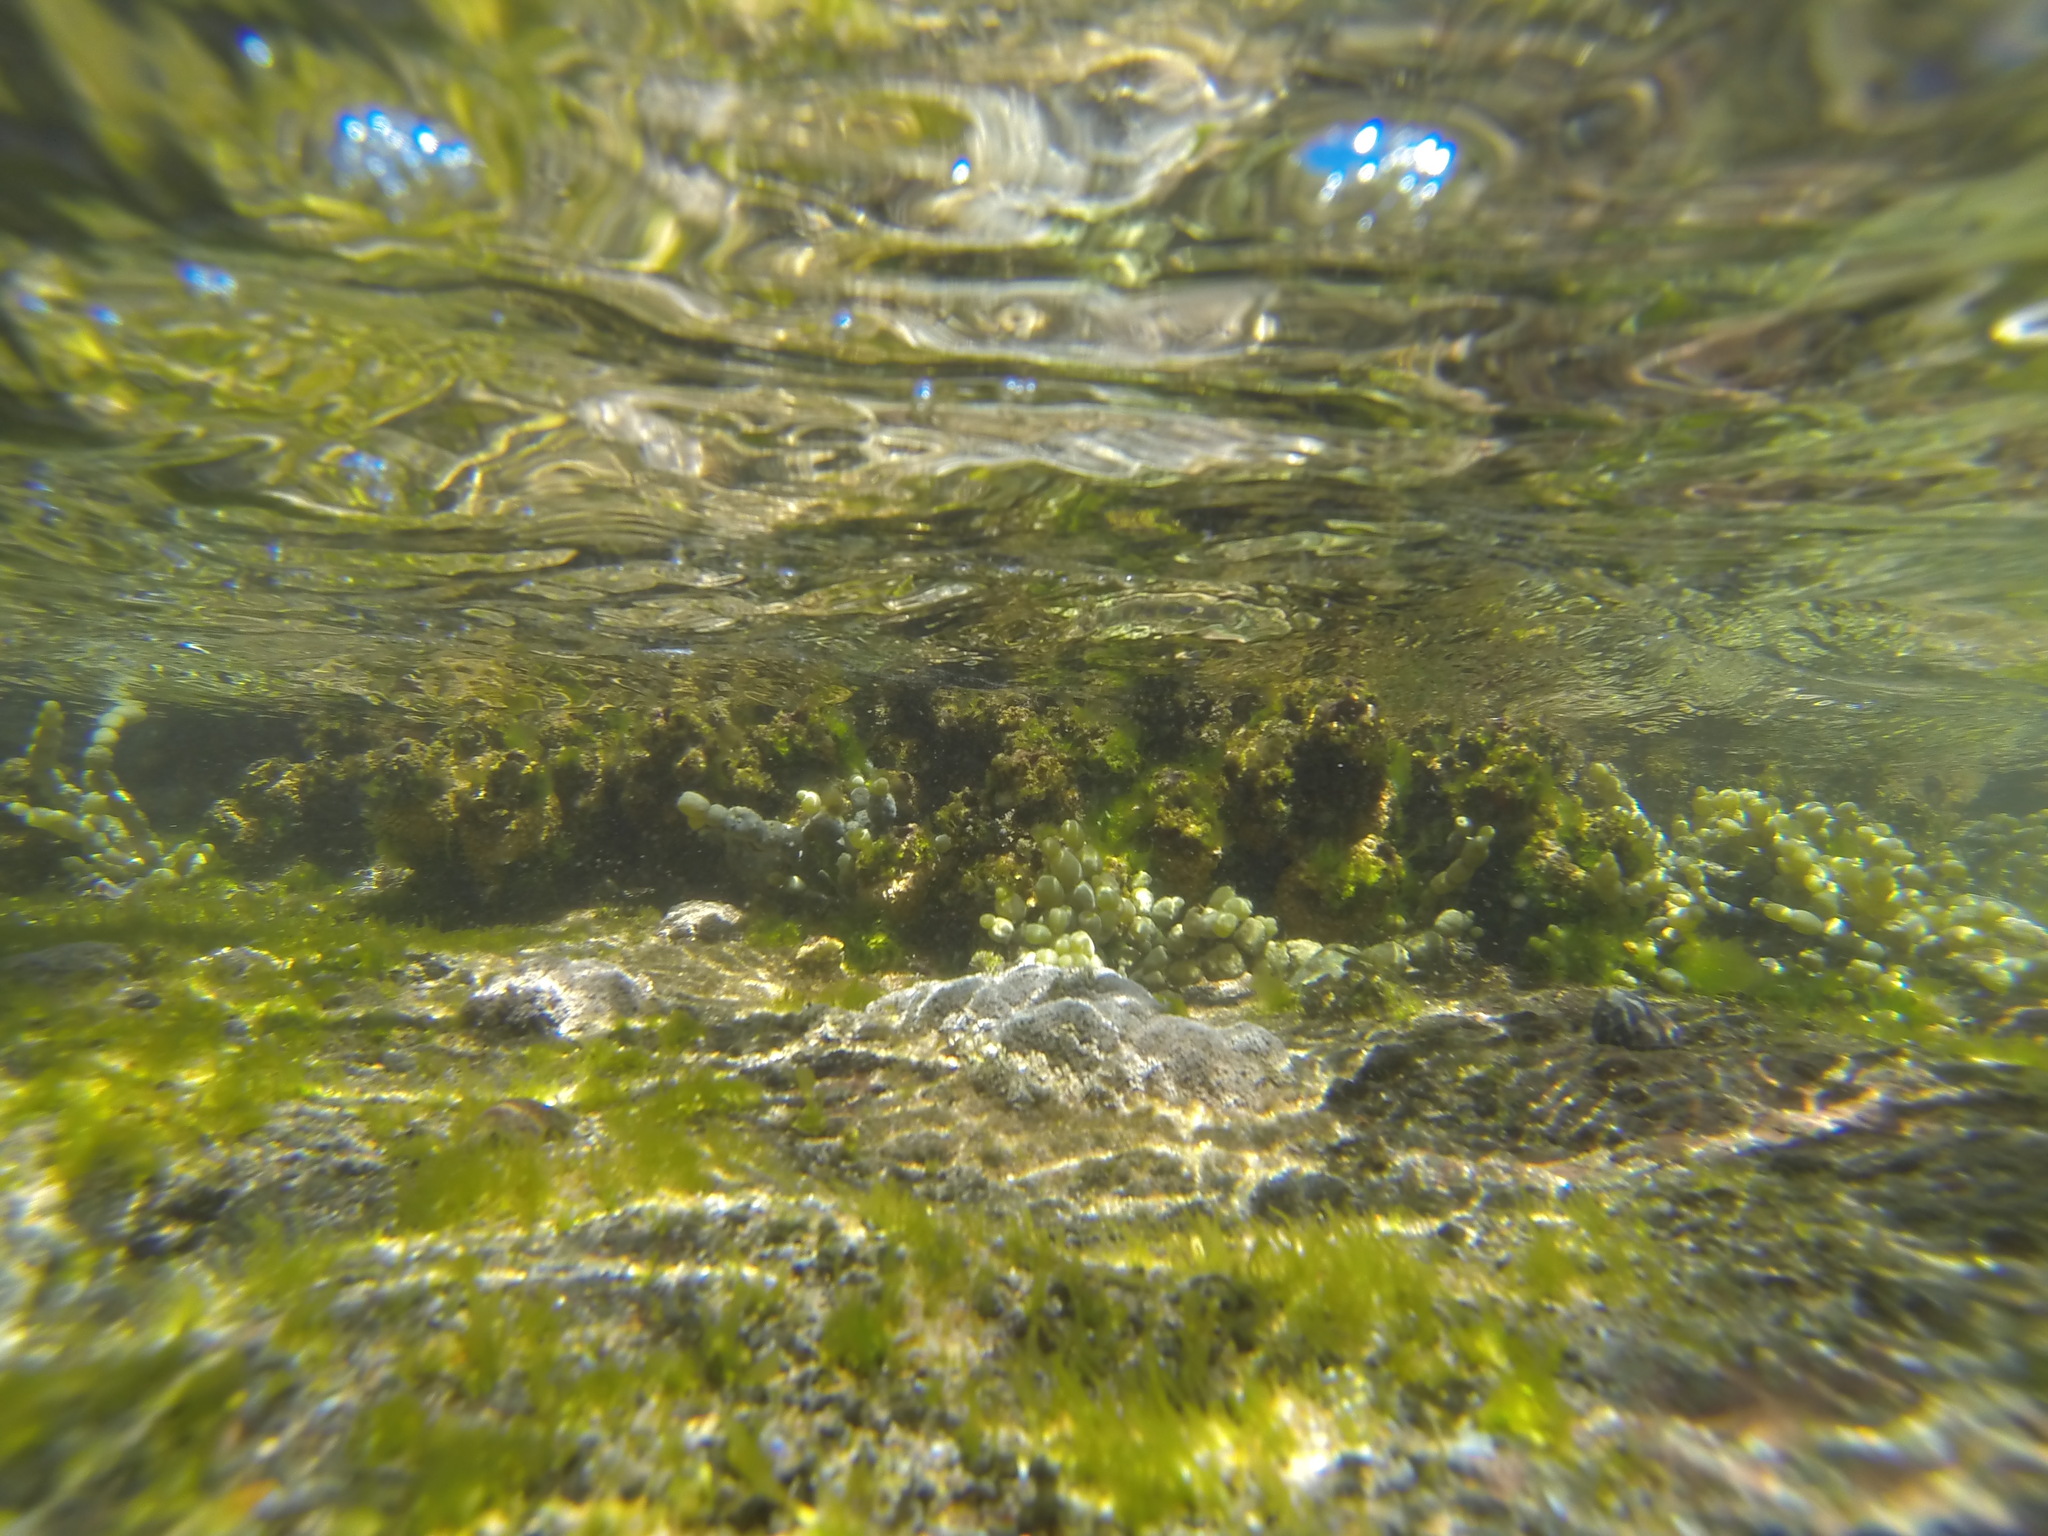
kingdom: Animalia
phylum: Chordata
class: Ascidiacea
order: Stolidobranchia
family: Pyuridae
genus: Pyura
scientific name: Pyura praeputialis
